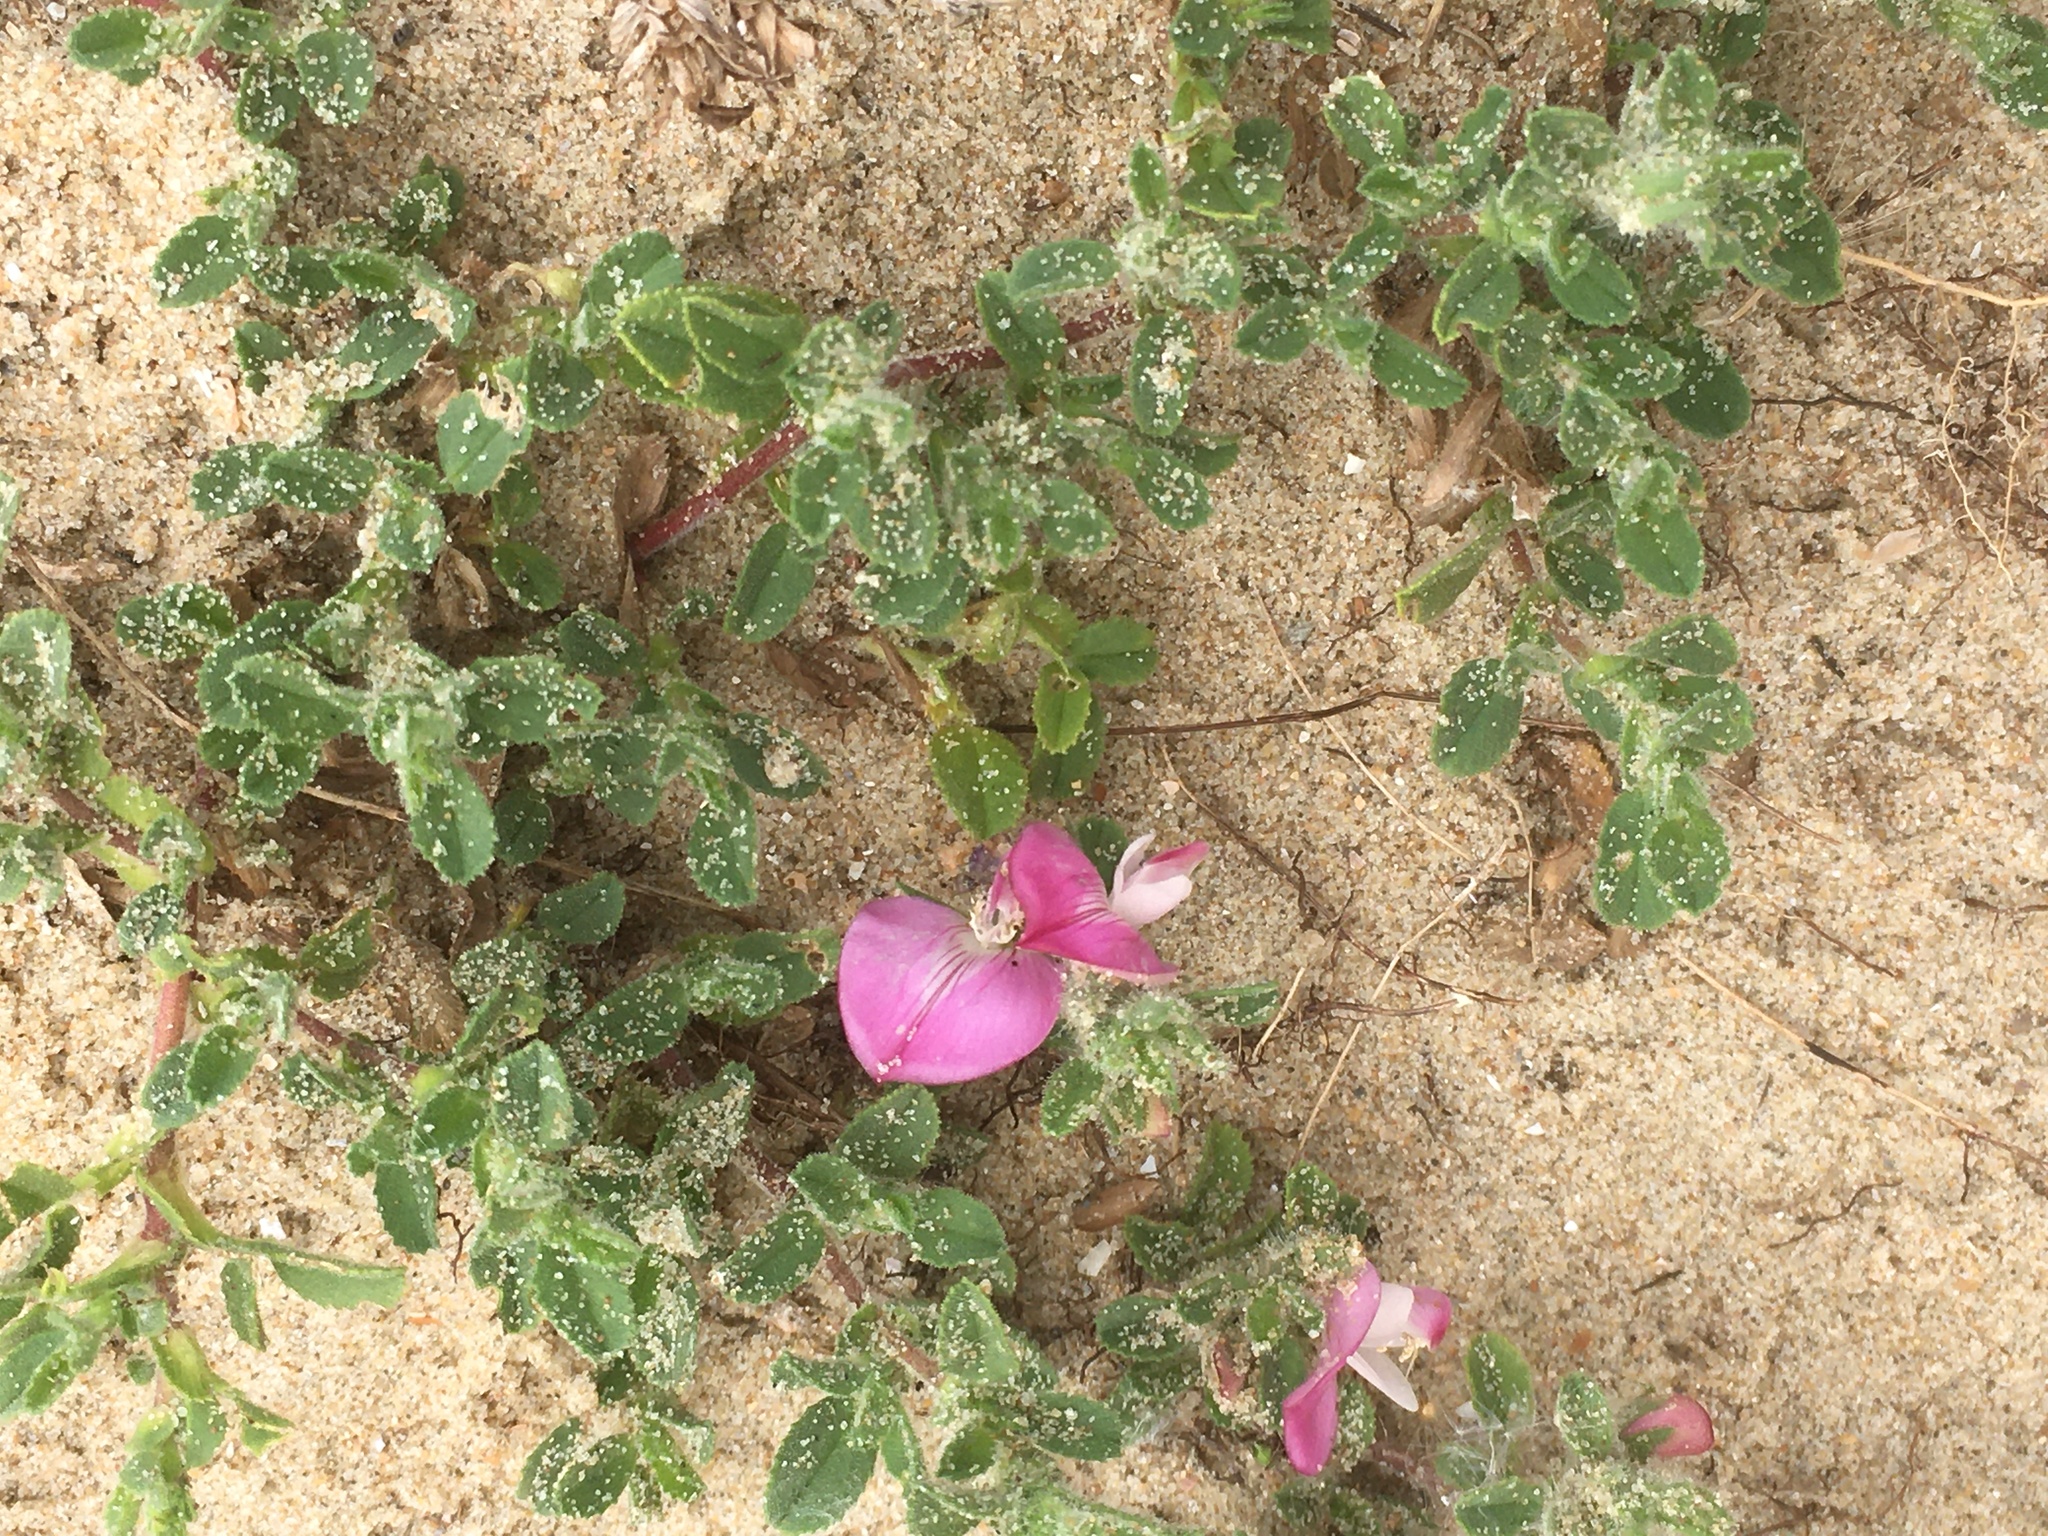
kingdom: Plantae
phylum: Tracheophyta
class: Magnoliopsida
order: Fabales
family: Fabaceae
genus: Ononis
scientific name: Ononis spinosa
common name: Spiny restharrow
